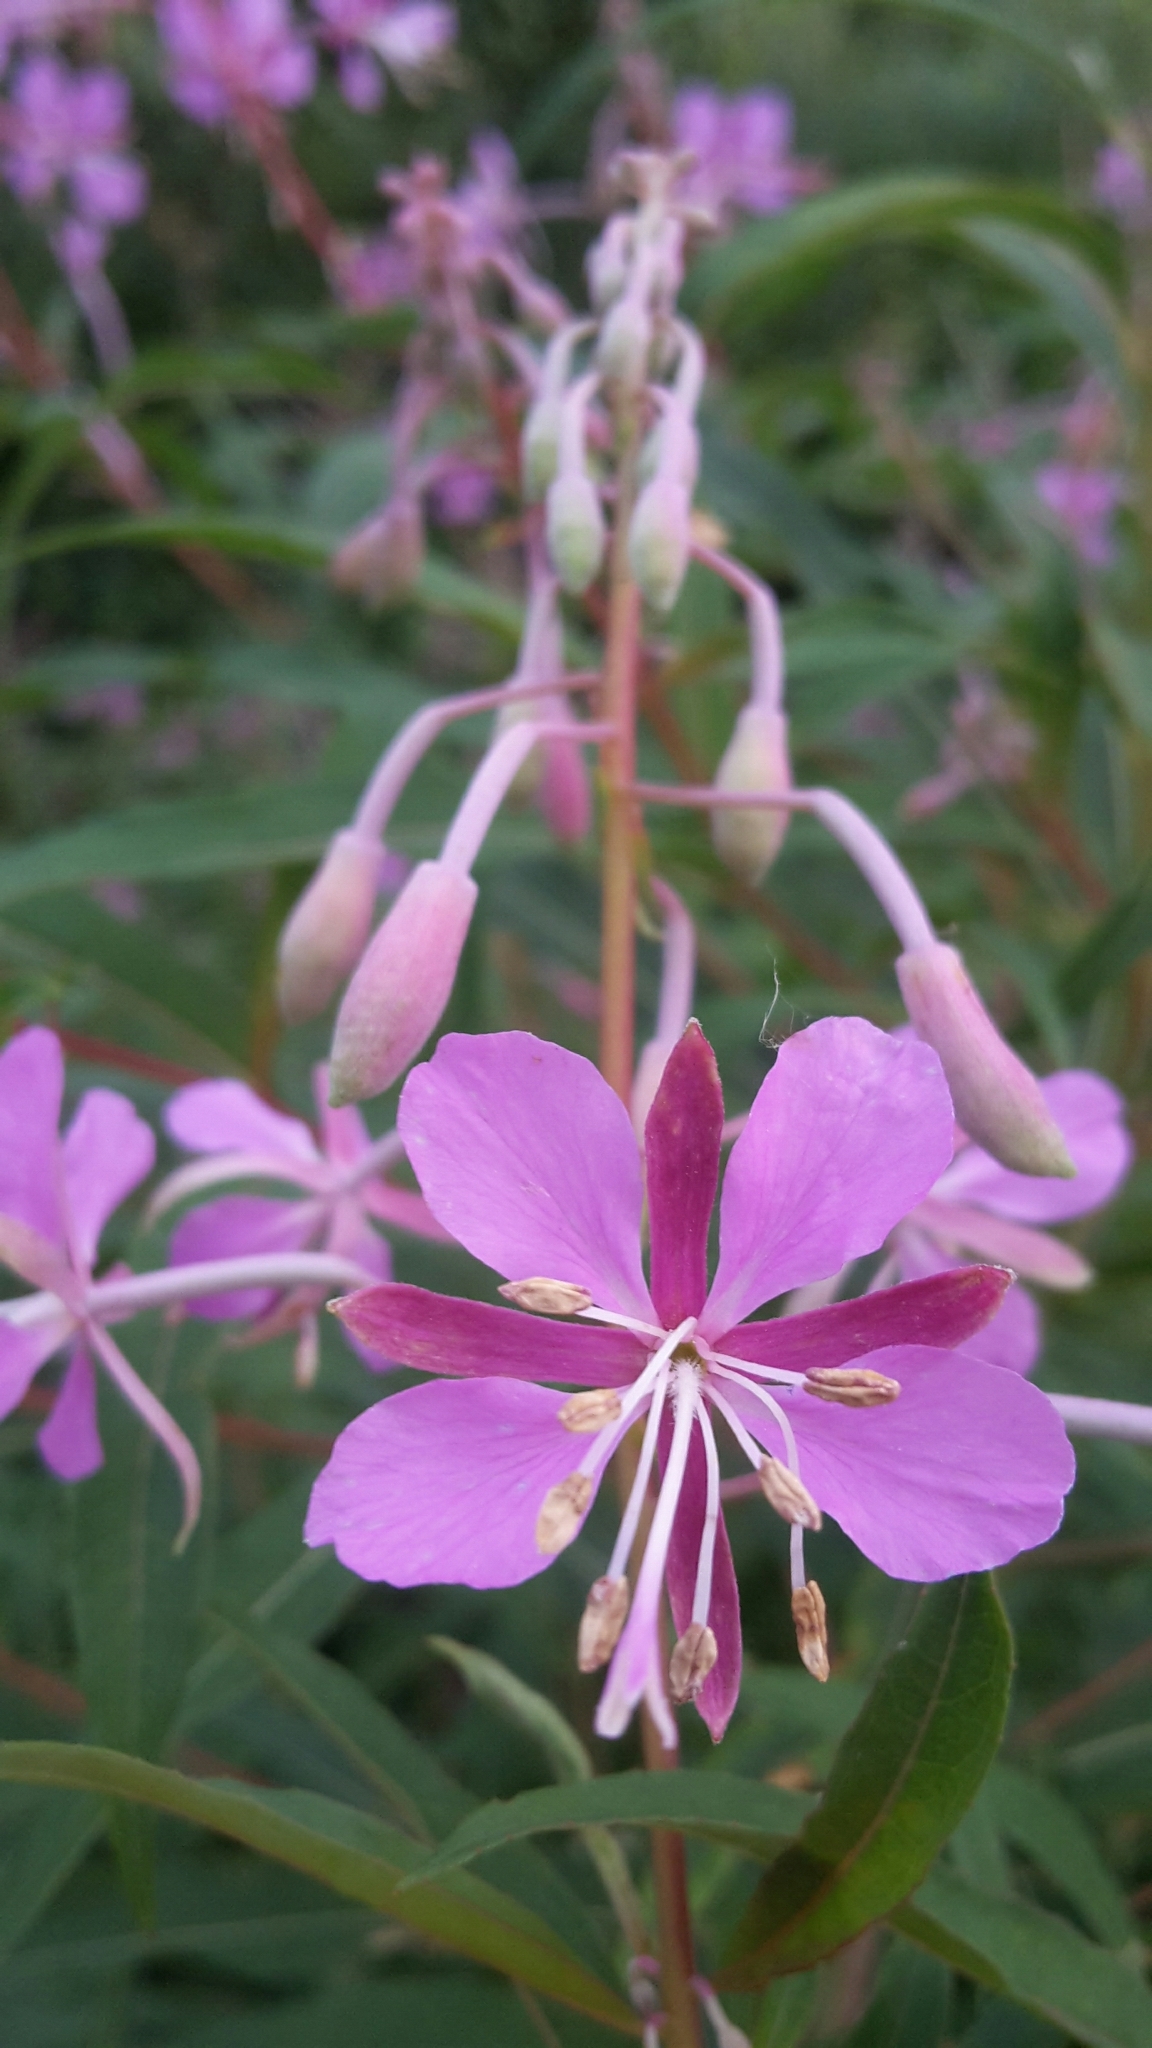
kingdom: Plantae
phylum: Tracheophyta
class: Magnoliopsida
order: Myrtales
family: Onagraceae
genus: Chamaenerion
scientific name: Chamaenerion angustifolium
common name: Fireweed
